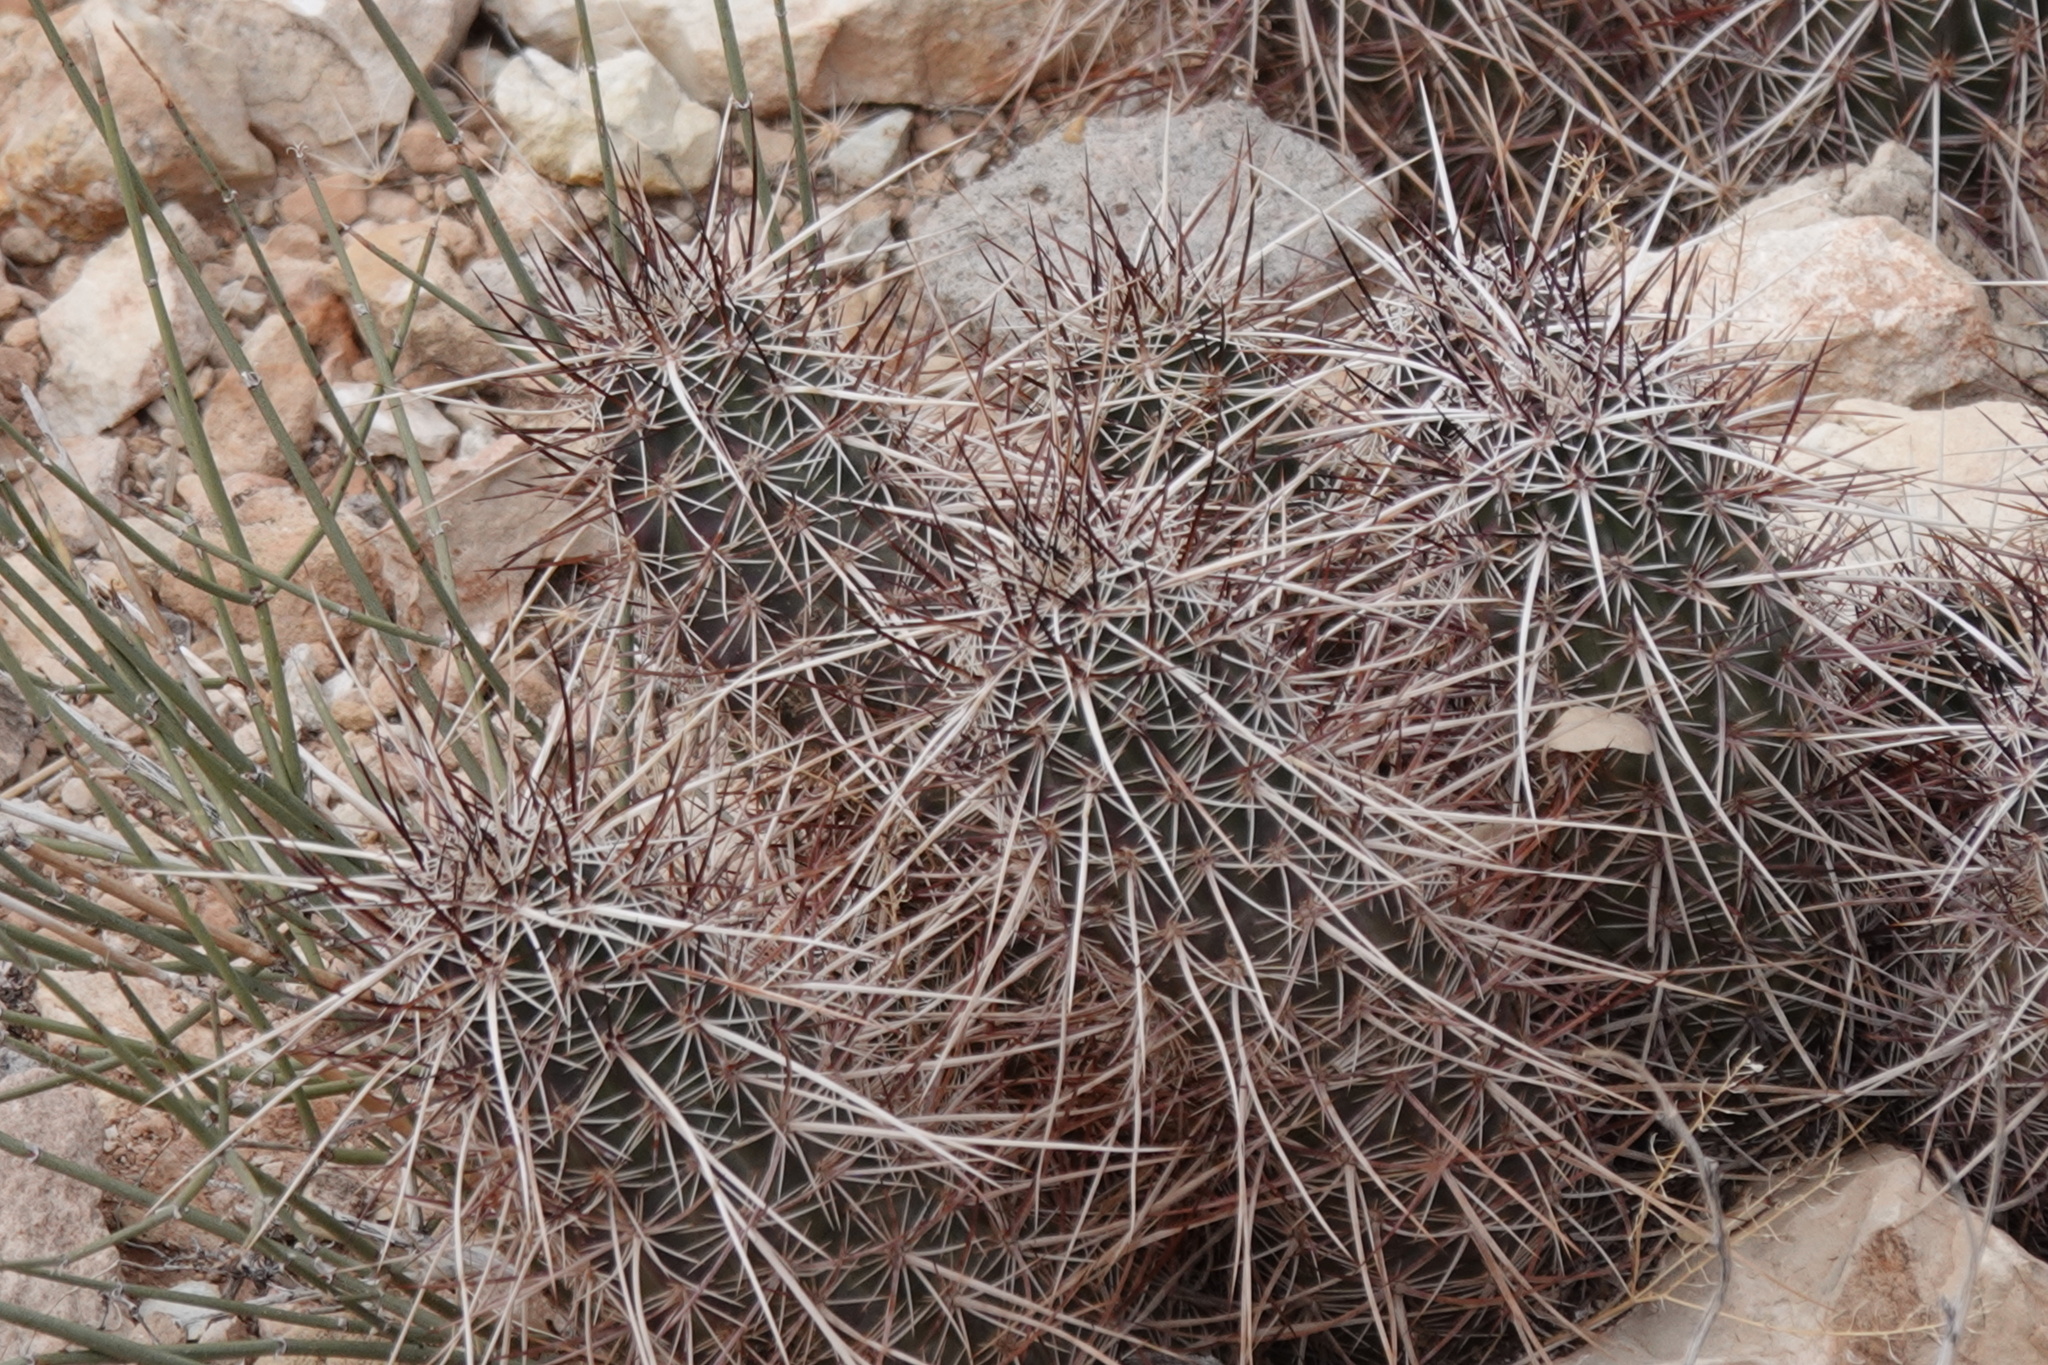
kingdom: Plantae
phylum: Tracheophyta
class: Magnoliopsida
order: Caryophyllales
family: Cactaceae
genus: Echinocereus
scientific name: Echinocereus engelmannii
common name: Engelmann's hedgehog cactus
